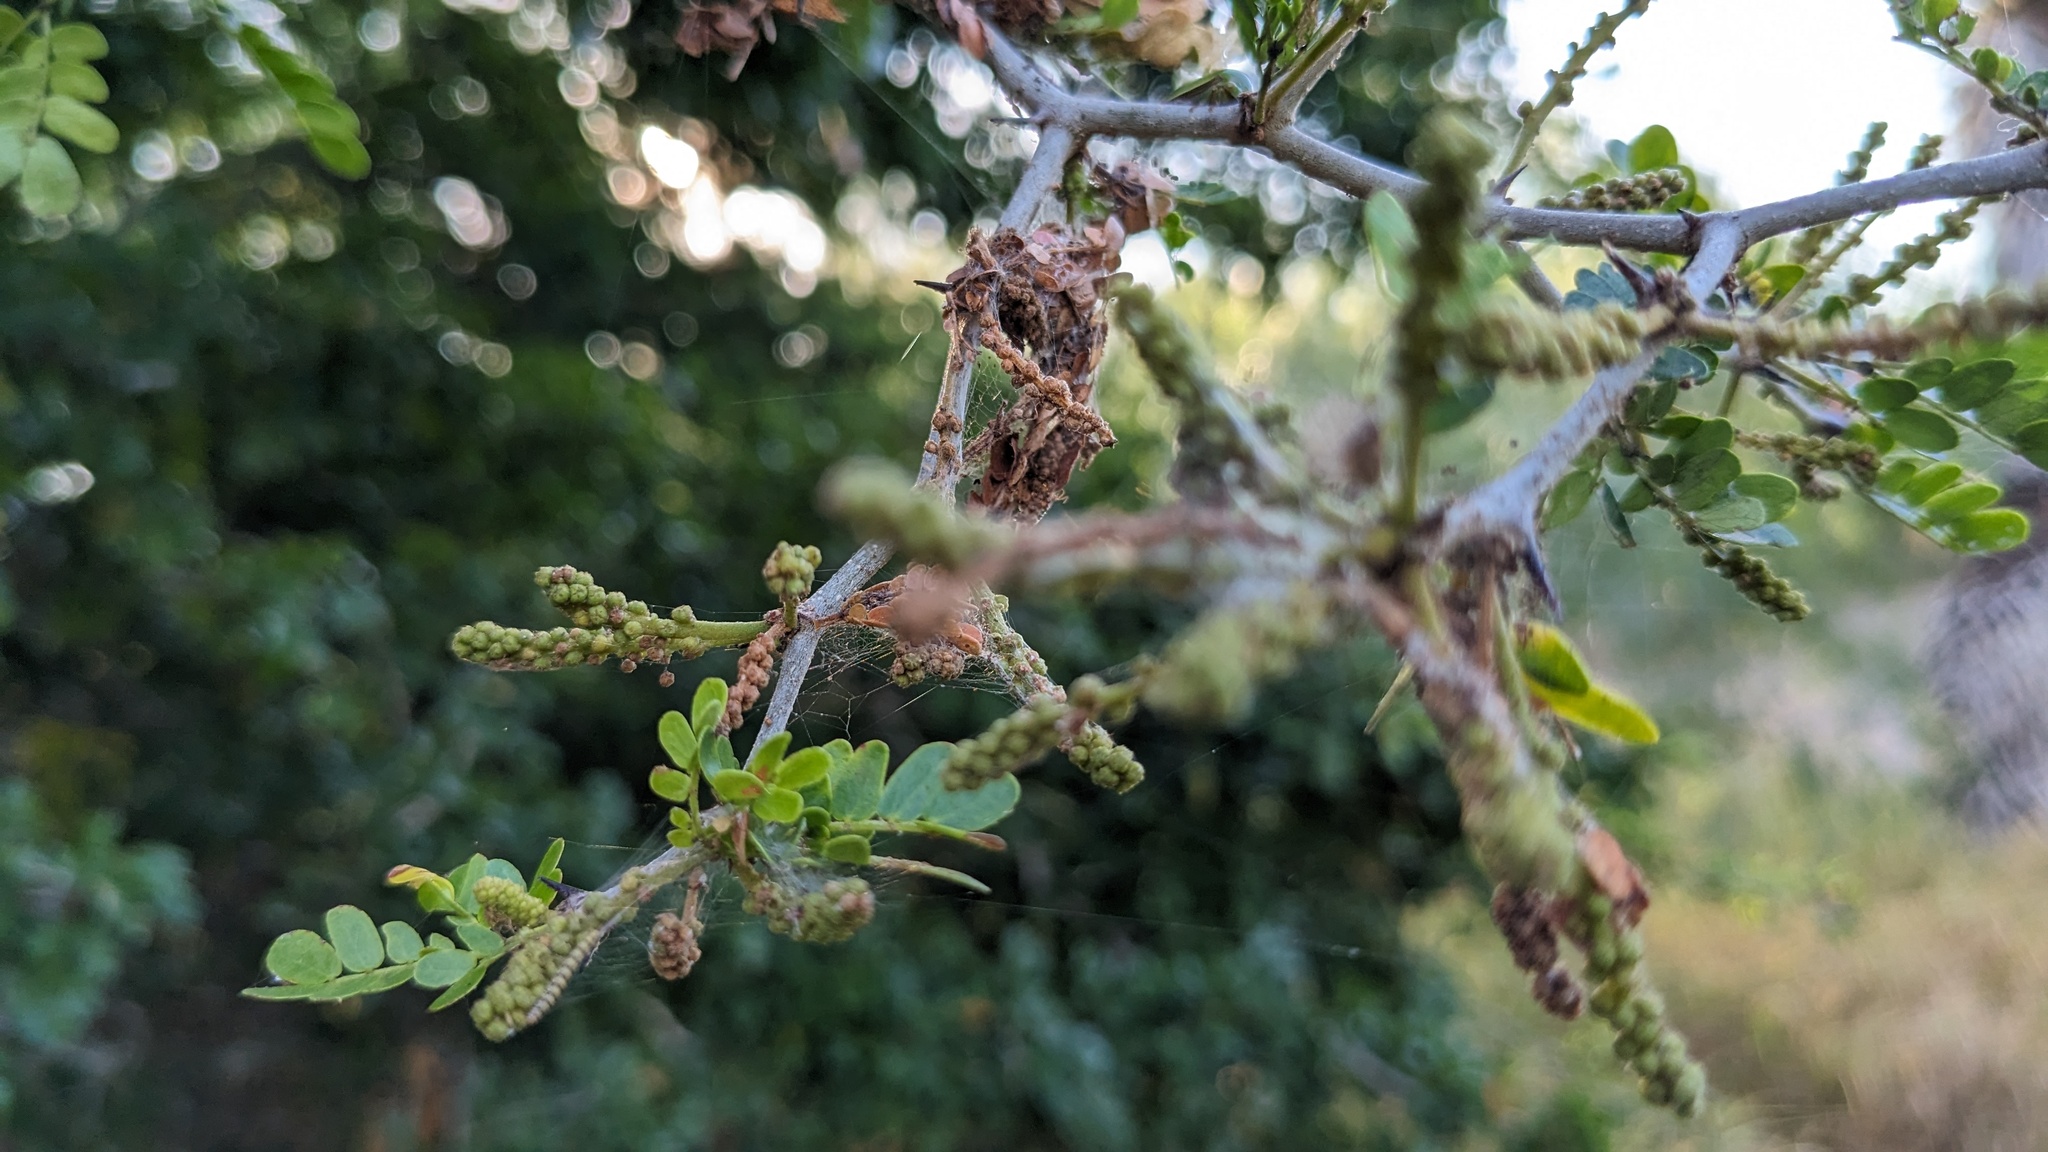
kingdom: Plantae
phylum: Tracheophyta
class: Magnoliopsida
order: Fabales
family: Fabaceae
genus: Ebenopsis
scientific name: Ebenopsis ebano
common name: Ebony blackbead
